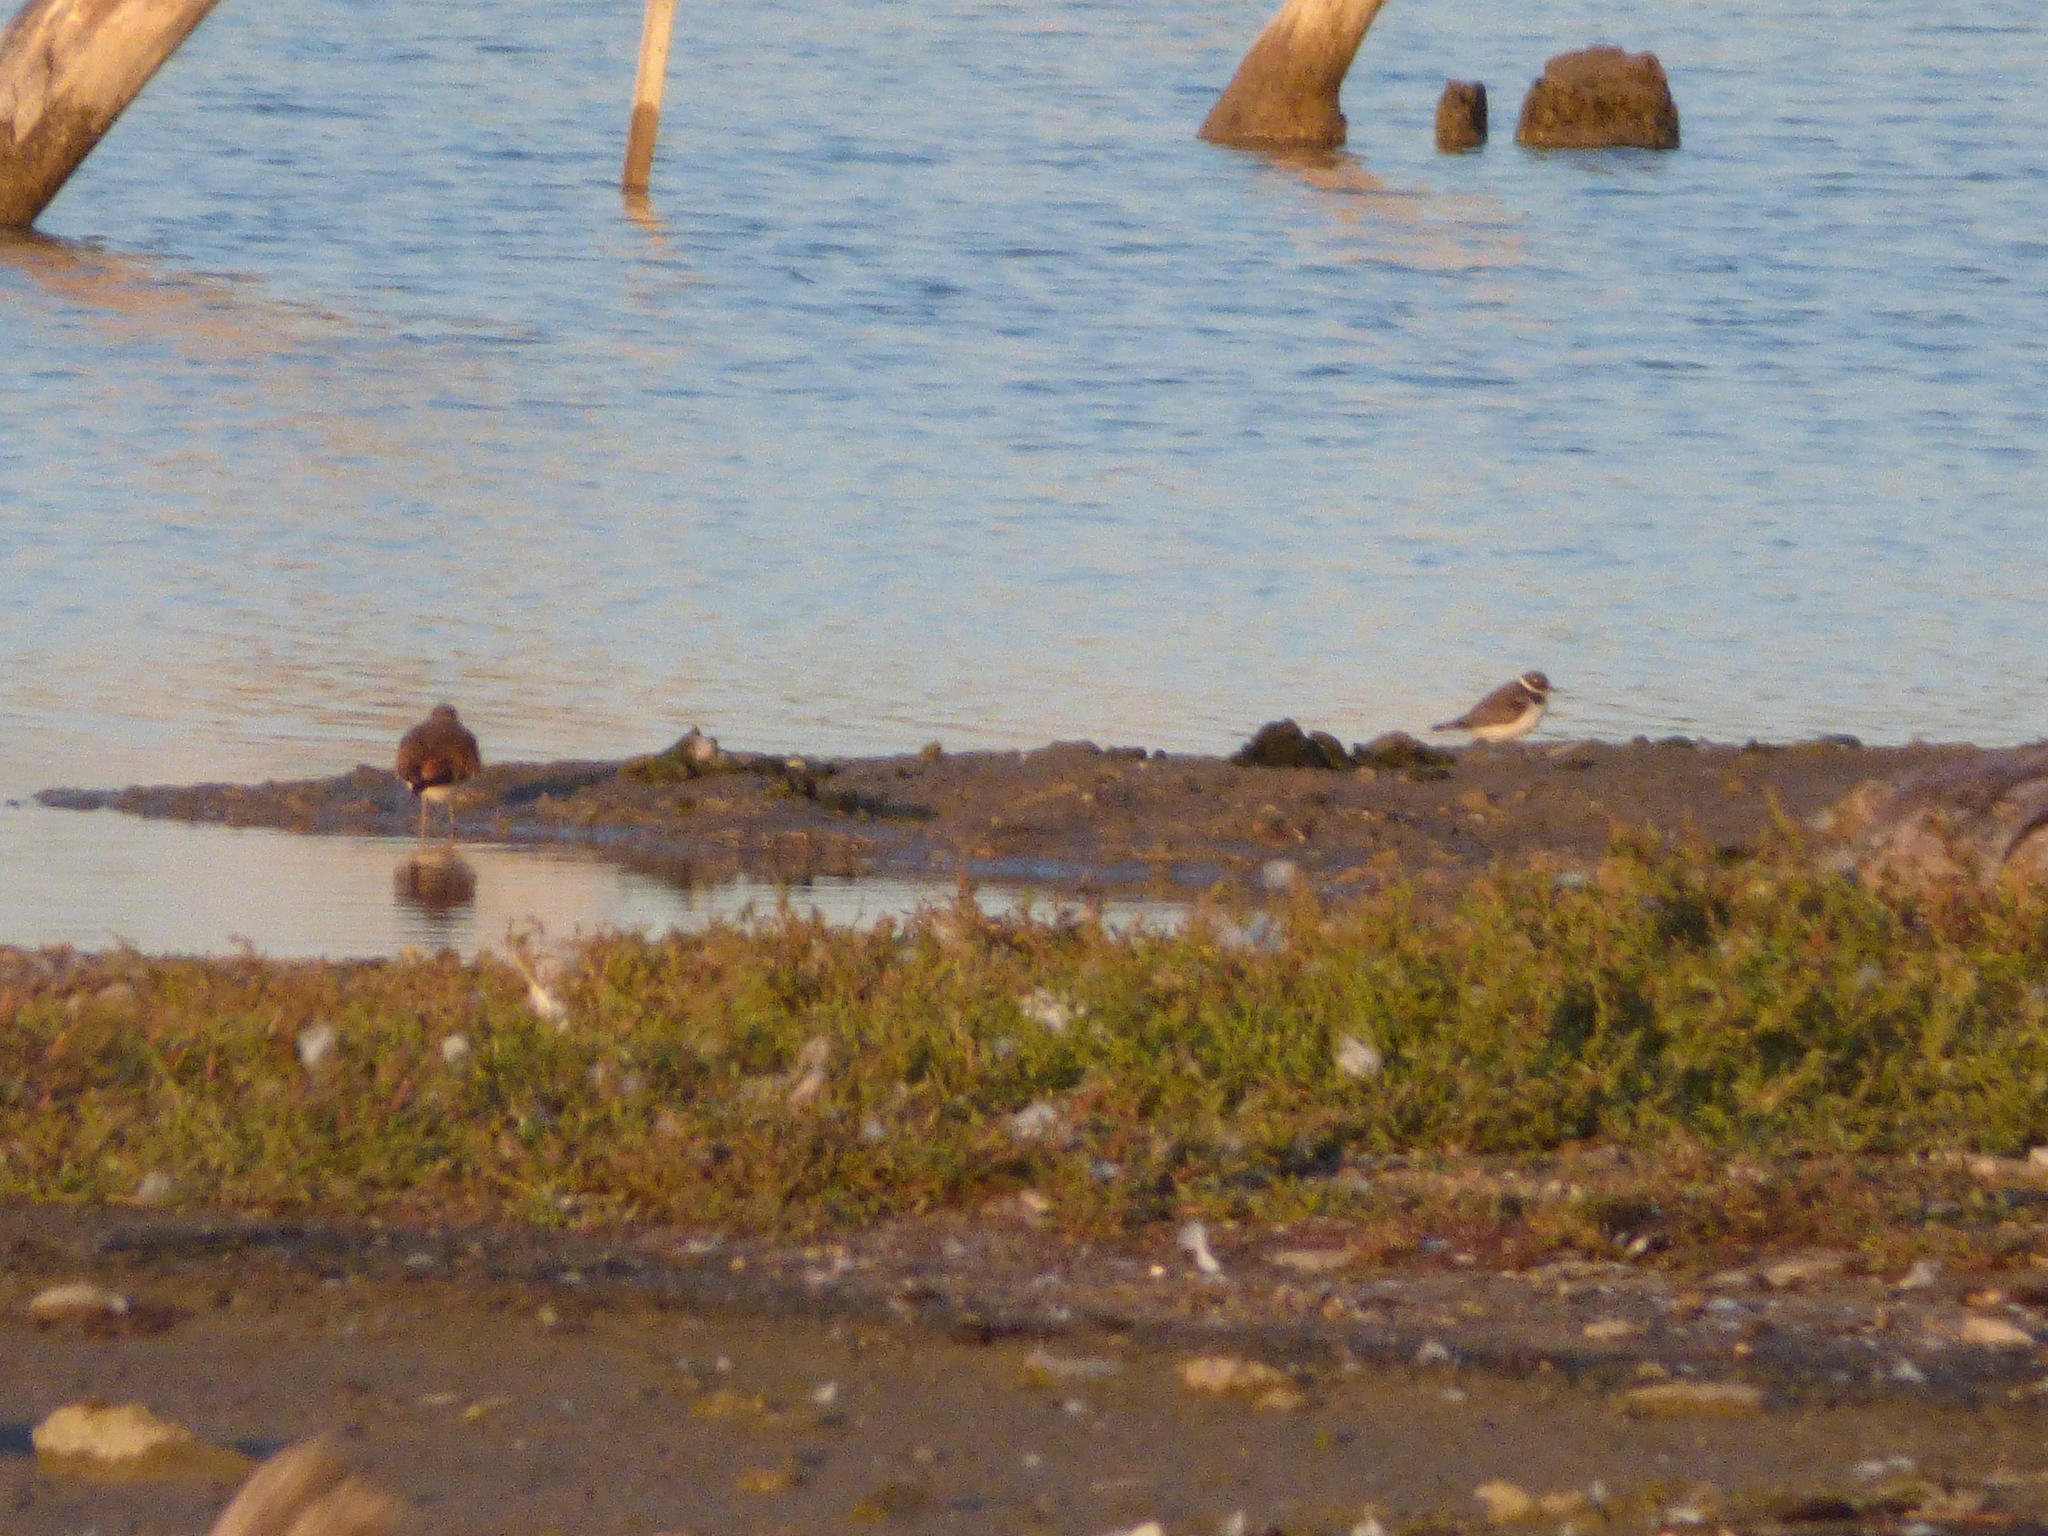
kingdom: Animalia
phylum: Chordata
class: Aves
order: Charadriiformes
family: Charadriidae
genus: Charadrius
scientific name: Charadrius semipalmatus
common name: Semipalmated plover
